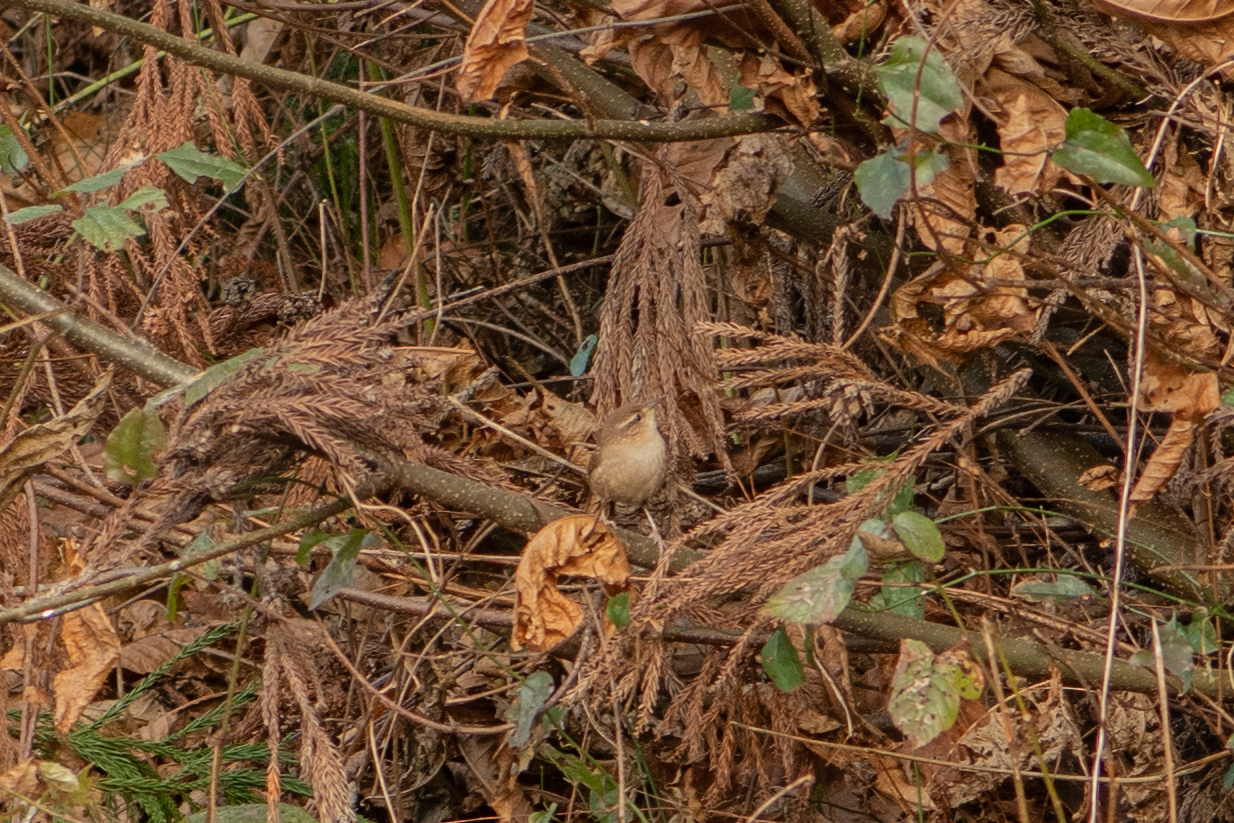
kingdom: Animalia
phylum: Chordata
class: Aves
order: Passeriformes
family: Troglodytidae
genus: Troglodytes
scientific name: Troglodytes troglodytes
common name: Eurasian wren
